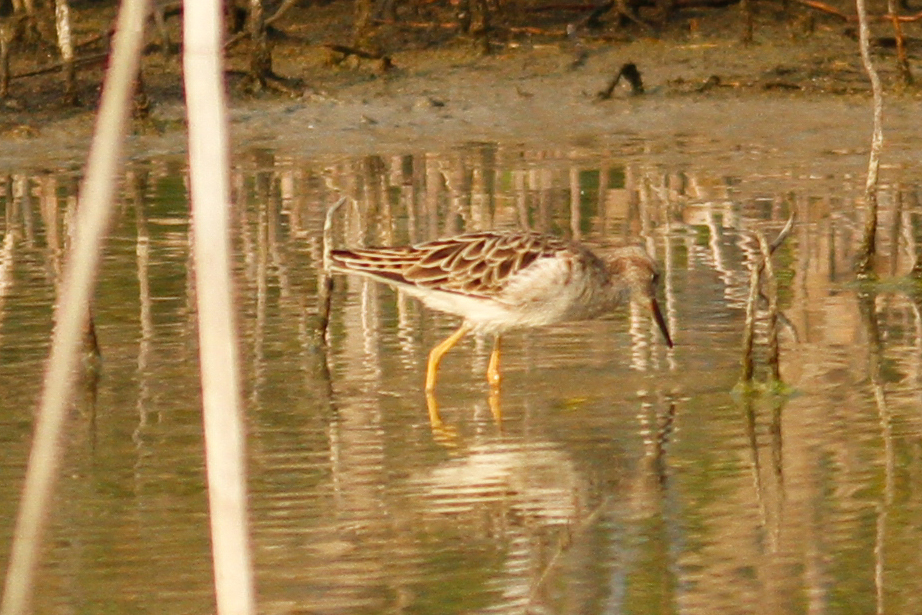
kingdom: Animalia
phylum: Chordata
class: Aves
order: Charadriiformes
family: Scolopacidae
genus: Calidris
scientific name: Calidris pugnax
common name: Ruff
